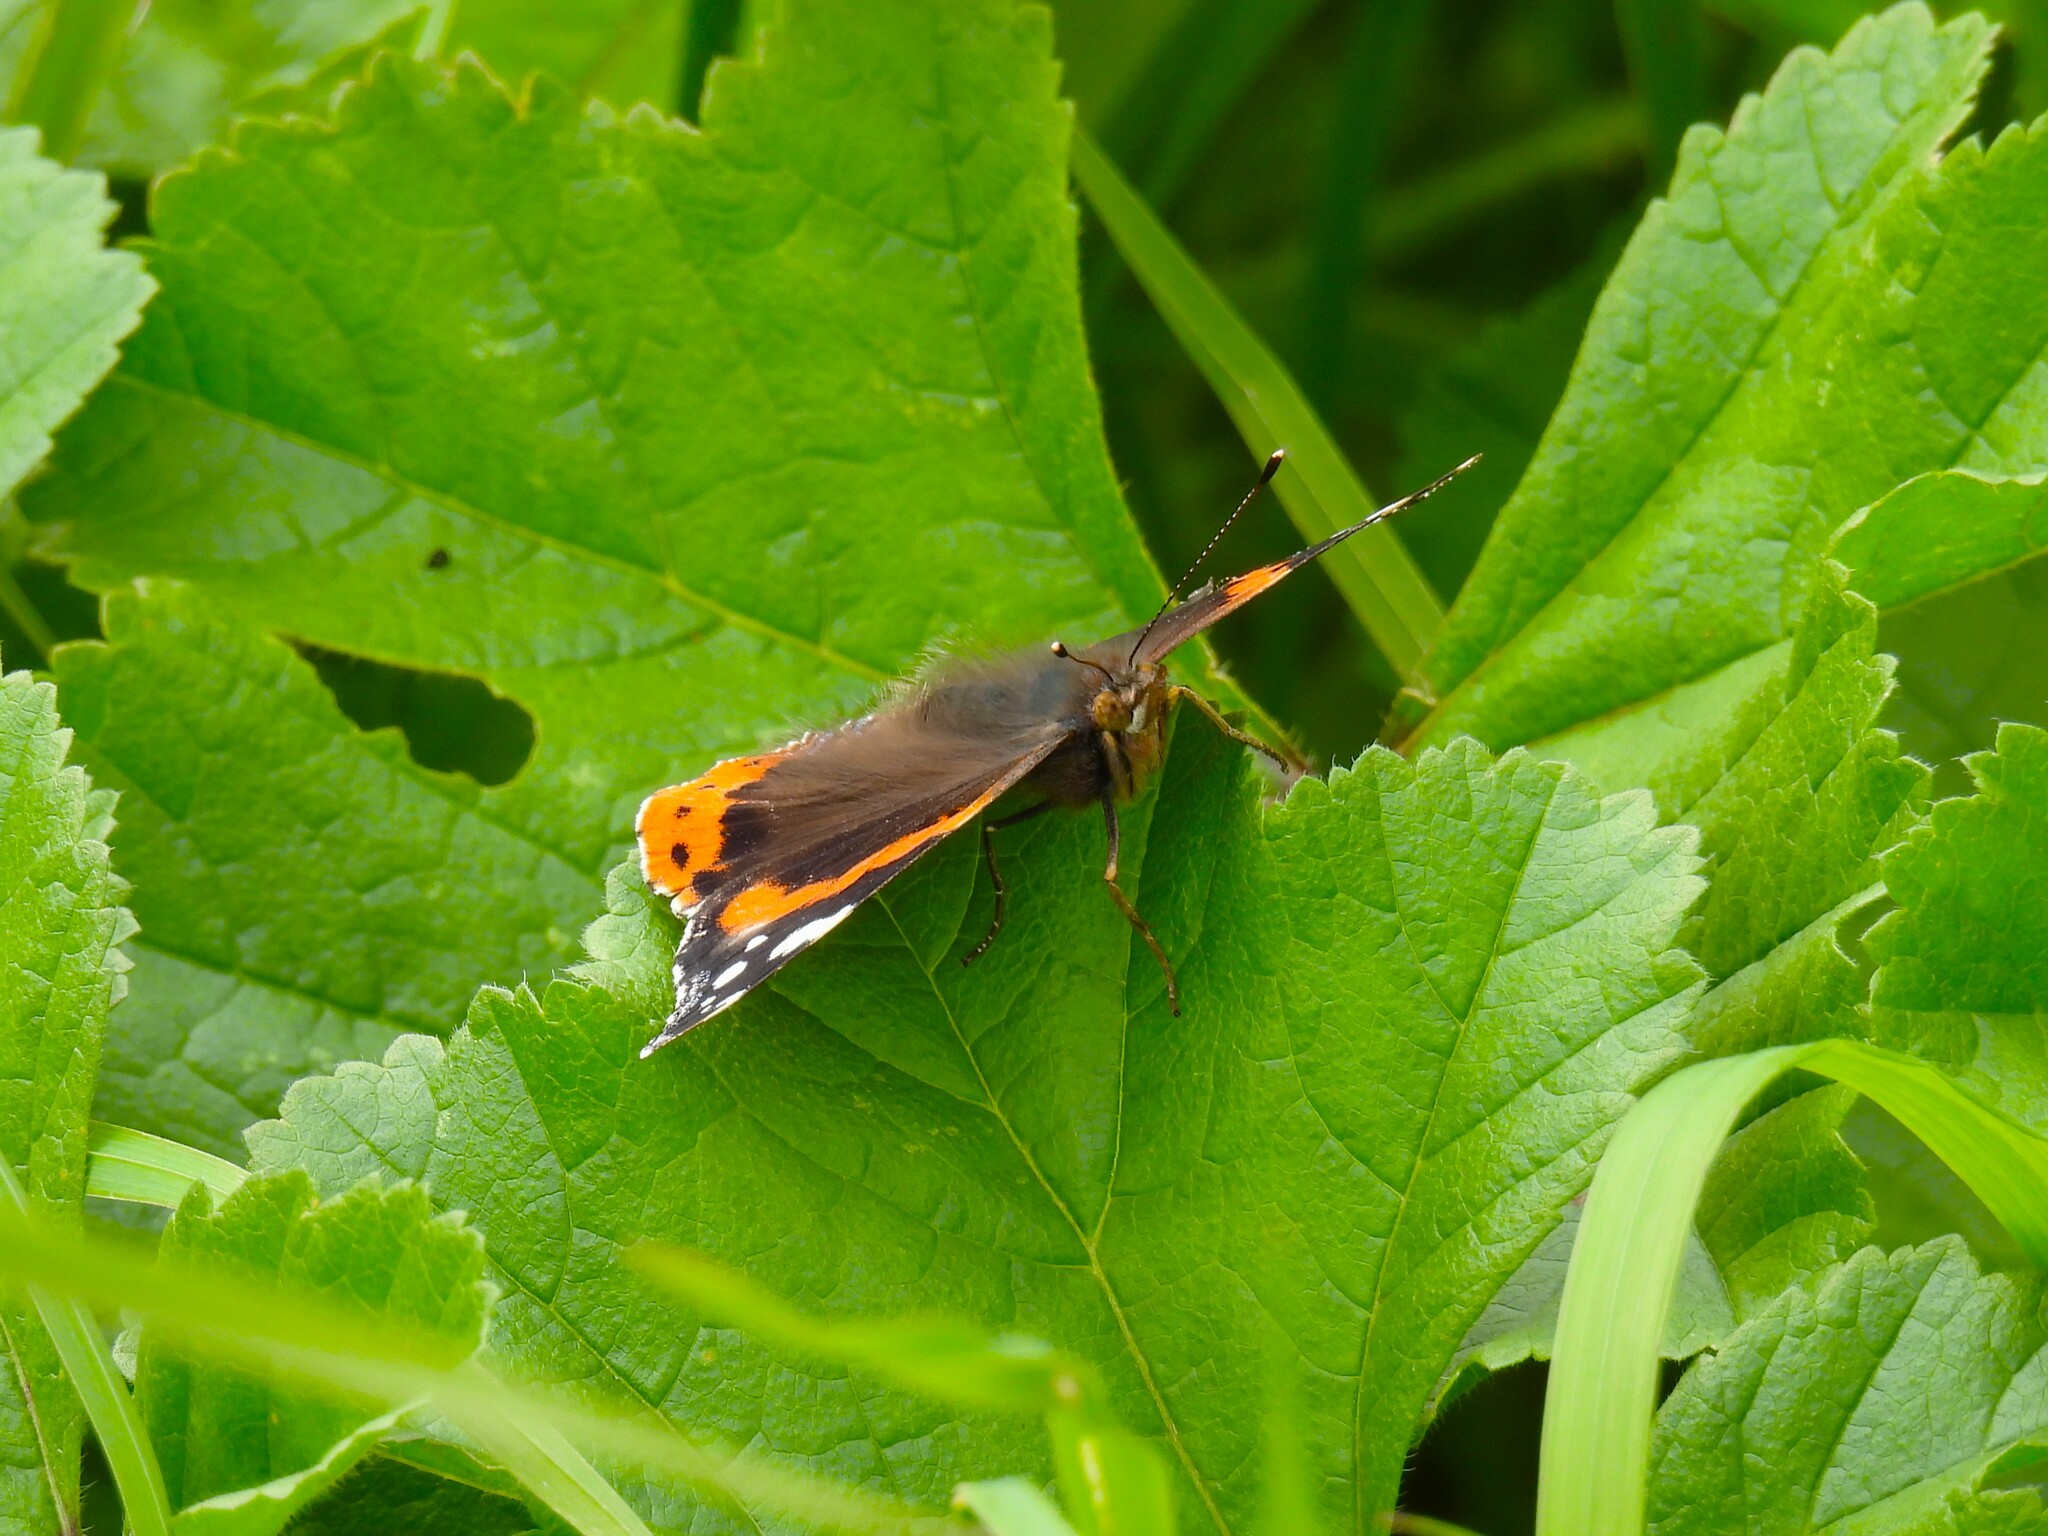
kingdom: Animalia
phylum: Arthropoda
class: Insecta
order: Lepidoptera
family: Nymphalidae
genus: Vanessa
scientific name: Vanessa atalanta
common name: Red admiral
